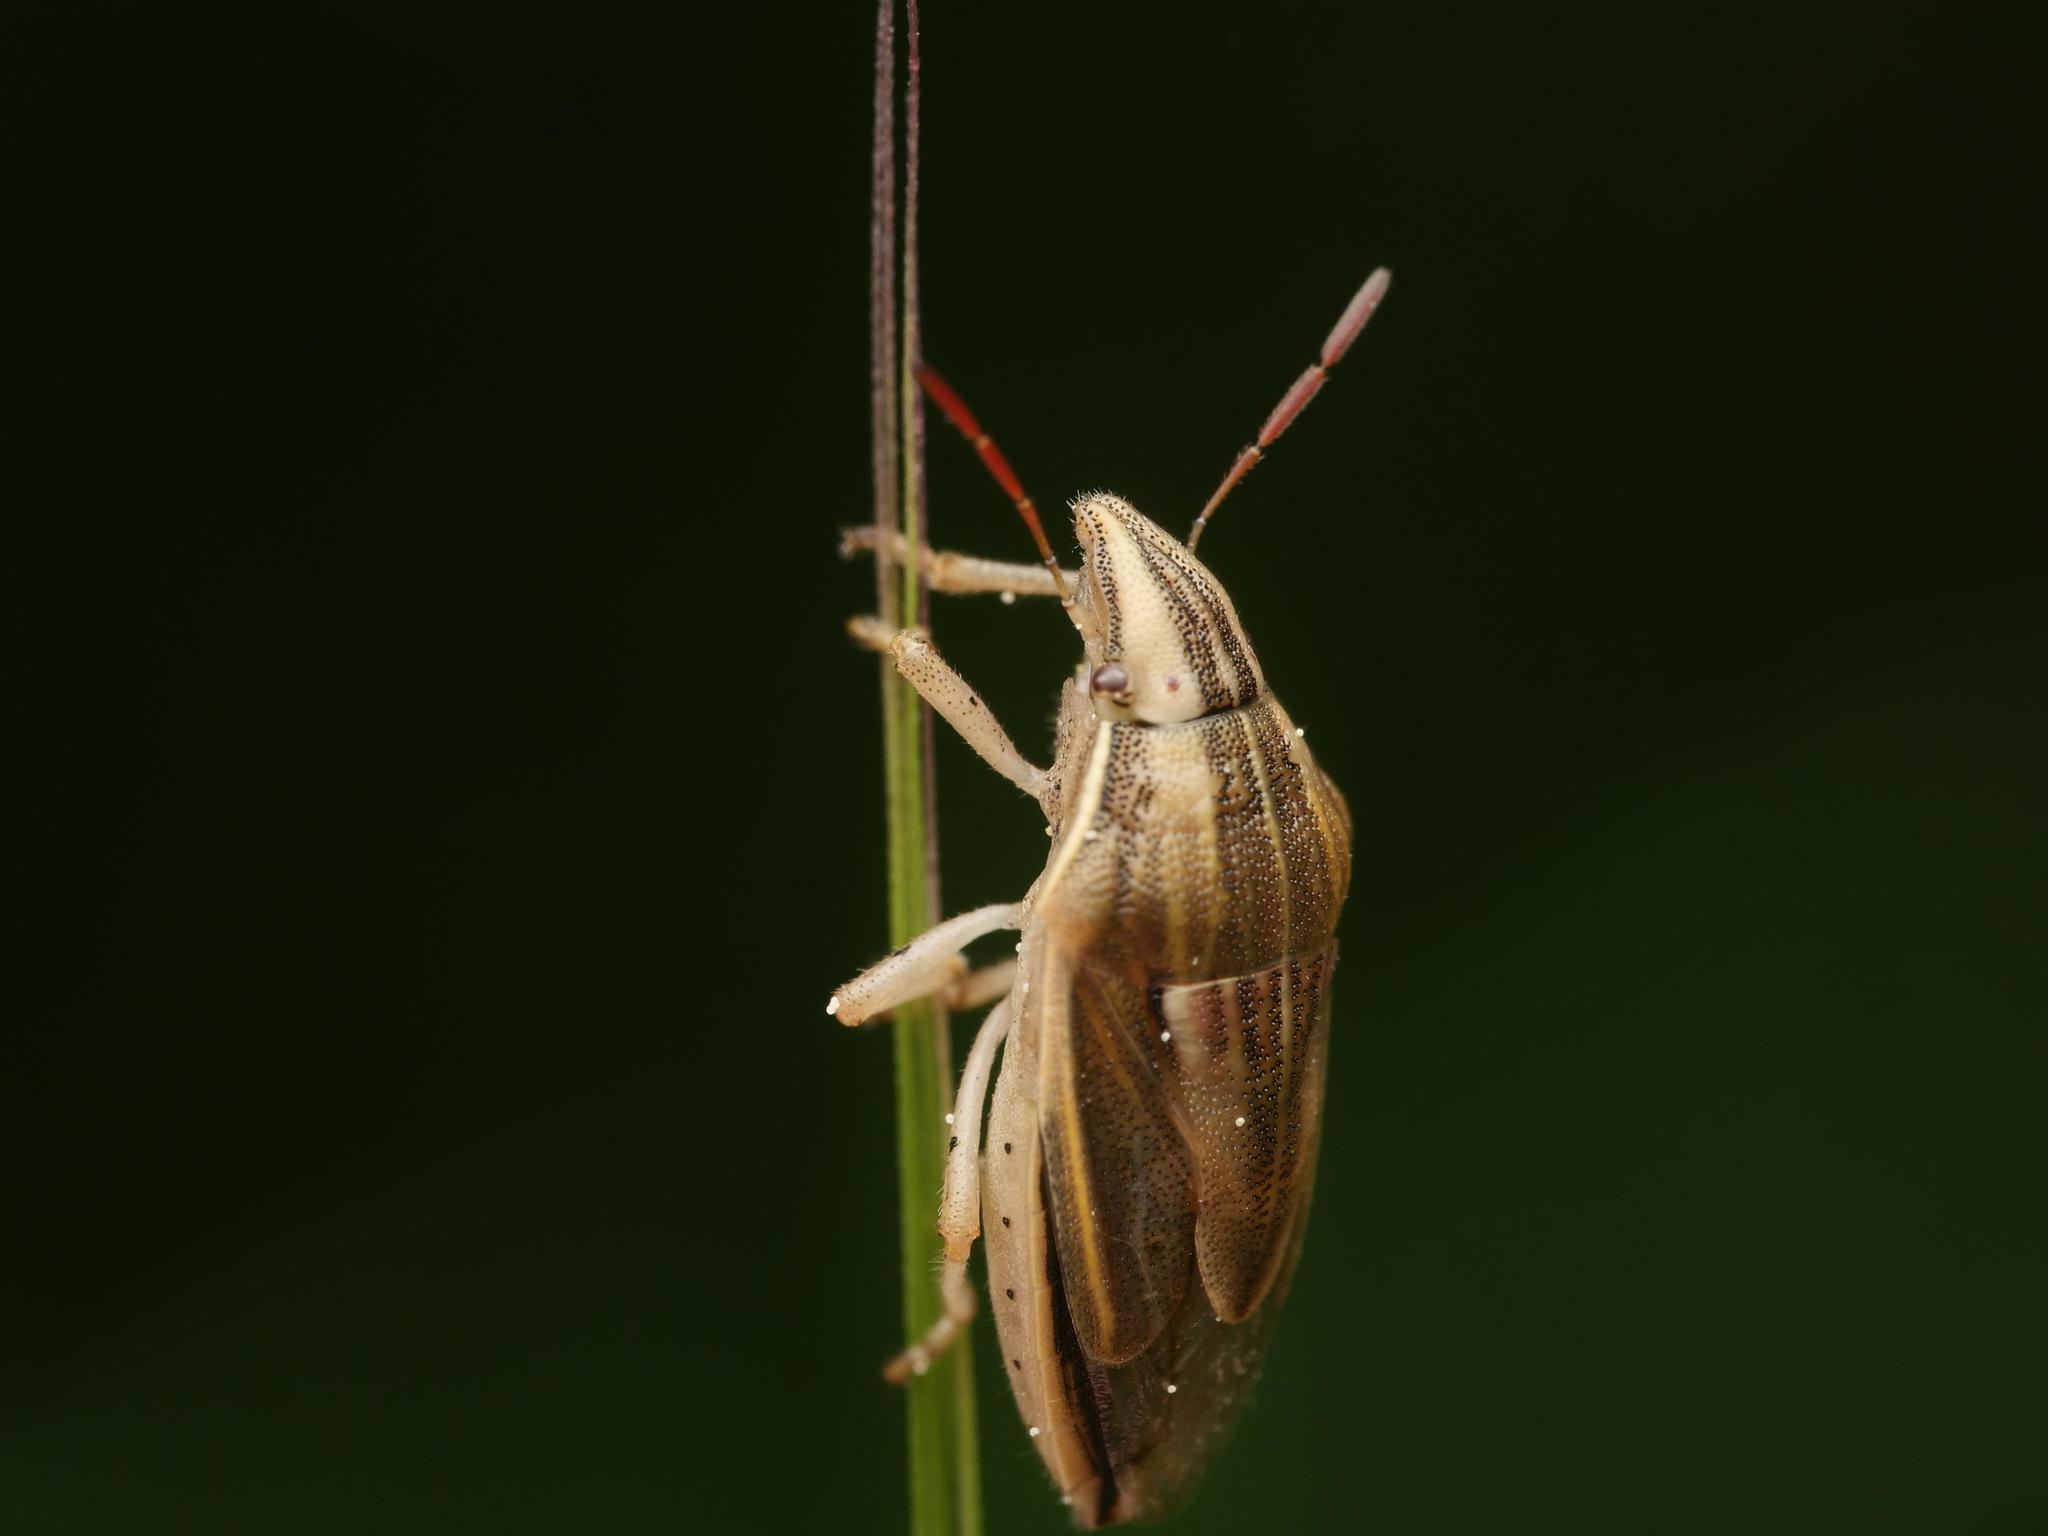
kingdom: Animalia
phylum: Arthropoda
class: Insecta
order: Hemiptera
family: Pentatomidae
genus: Aelia
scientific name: Aelia acuminata
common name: Bishop's mitre
